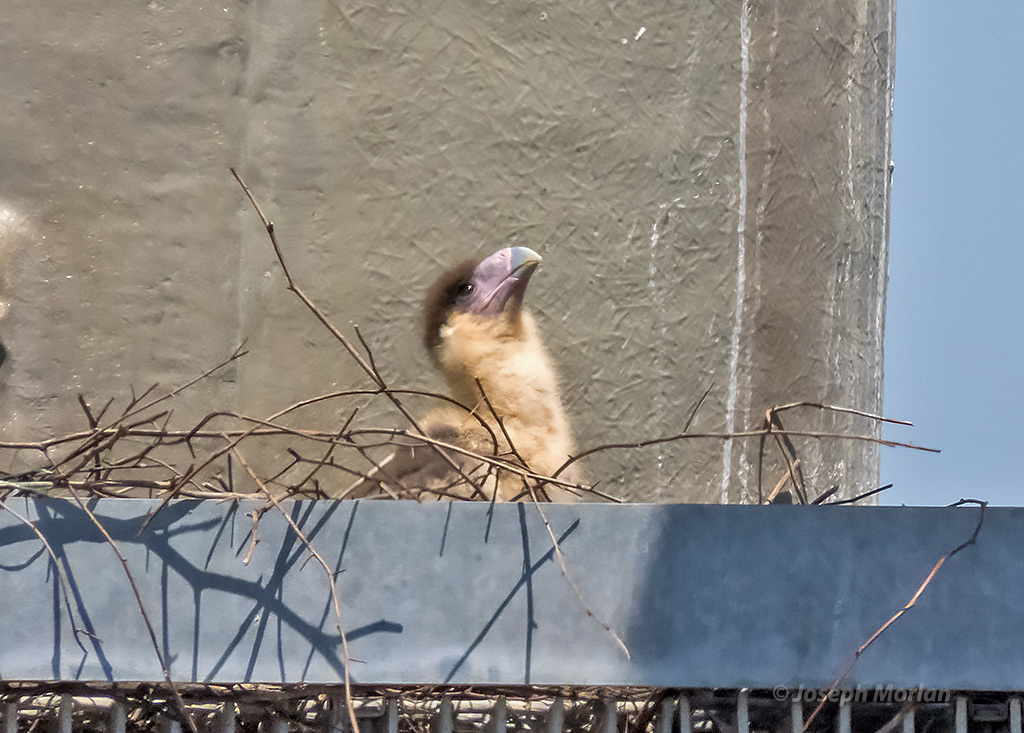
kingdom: Animalia
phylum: Chordata
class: Aves
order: Falconiformes
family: Falconidae
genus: Caracara
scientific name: Caracara plancus
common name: Southern caracara
